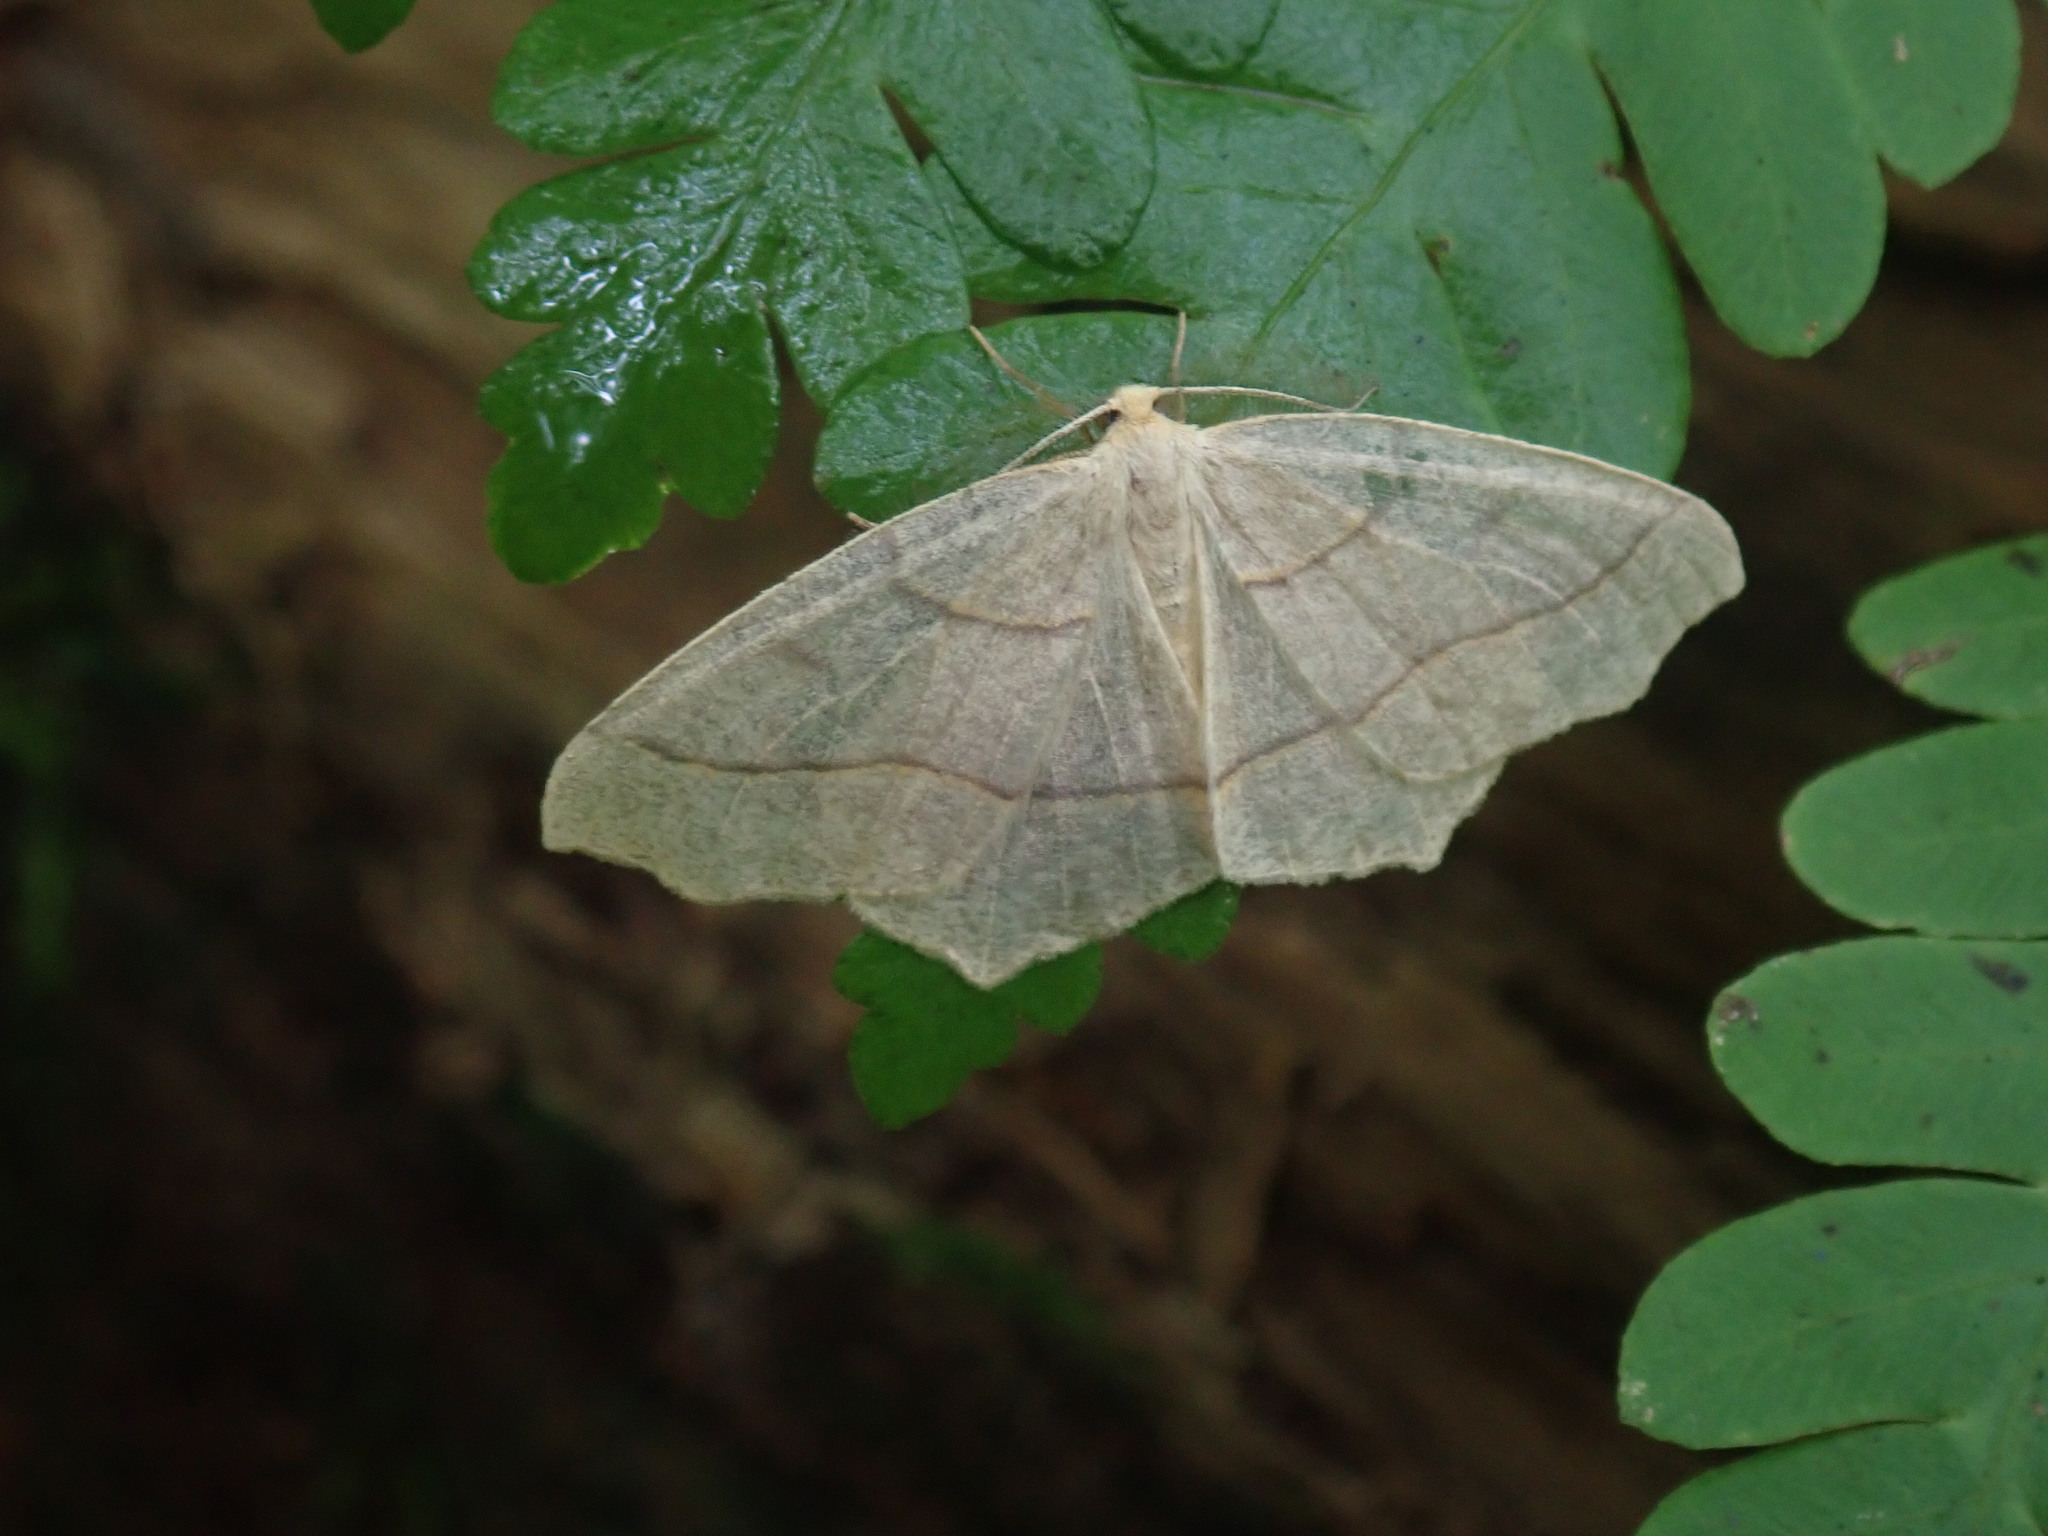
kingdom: Animalia
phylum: Arthropoda
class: Insecta
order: Lepidoptera
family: Geometridae
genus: Lambdina
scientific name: Lambdina fiscellaria
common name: Hemlock looper
